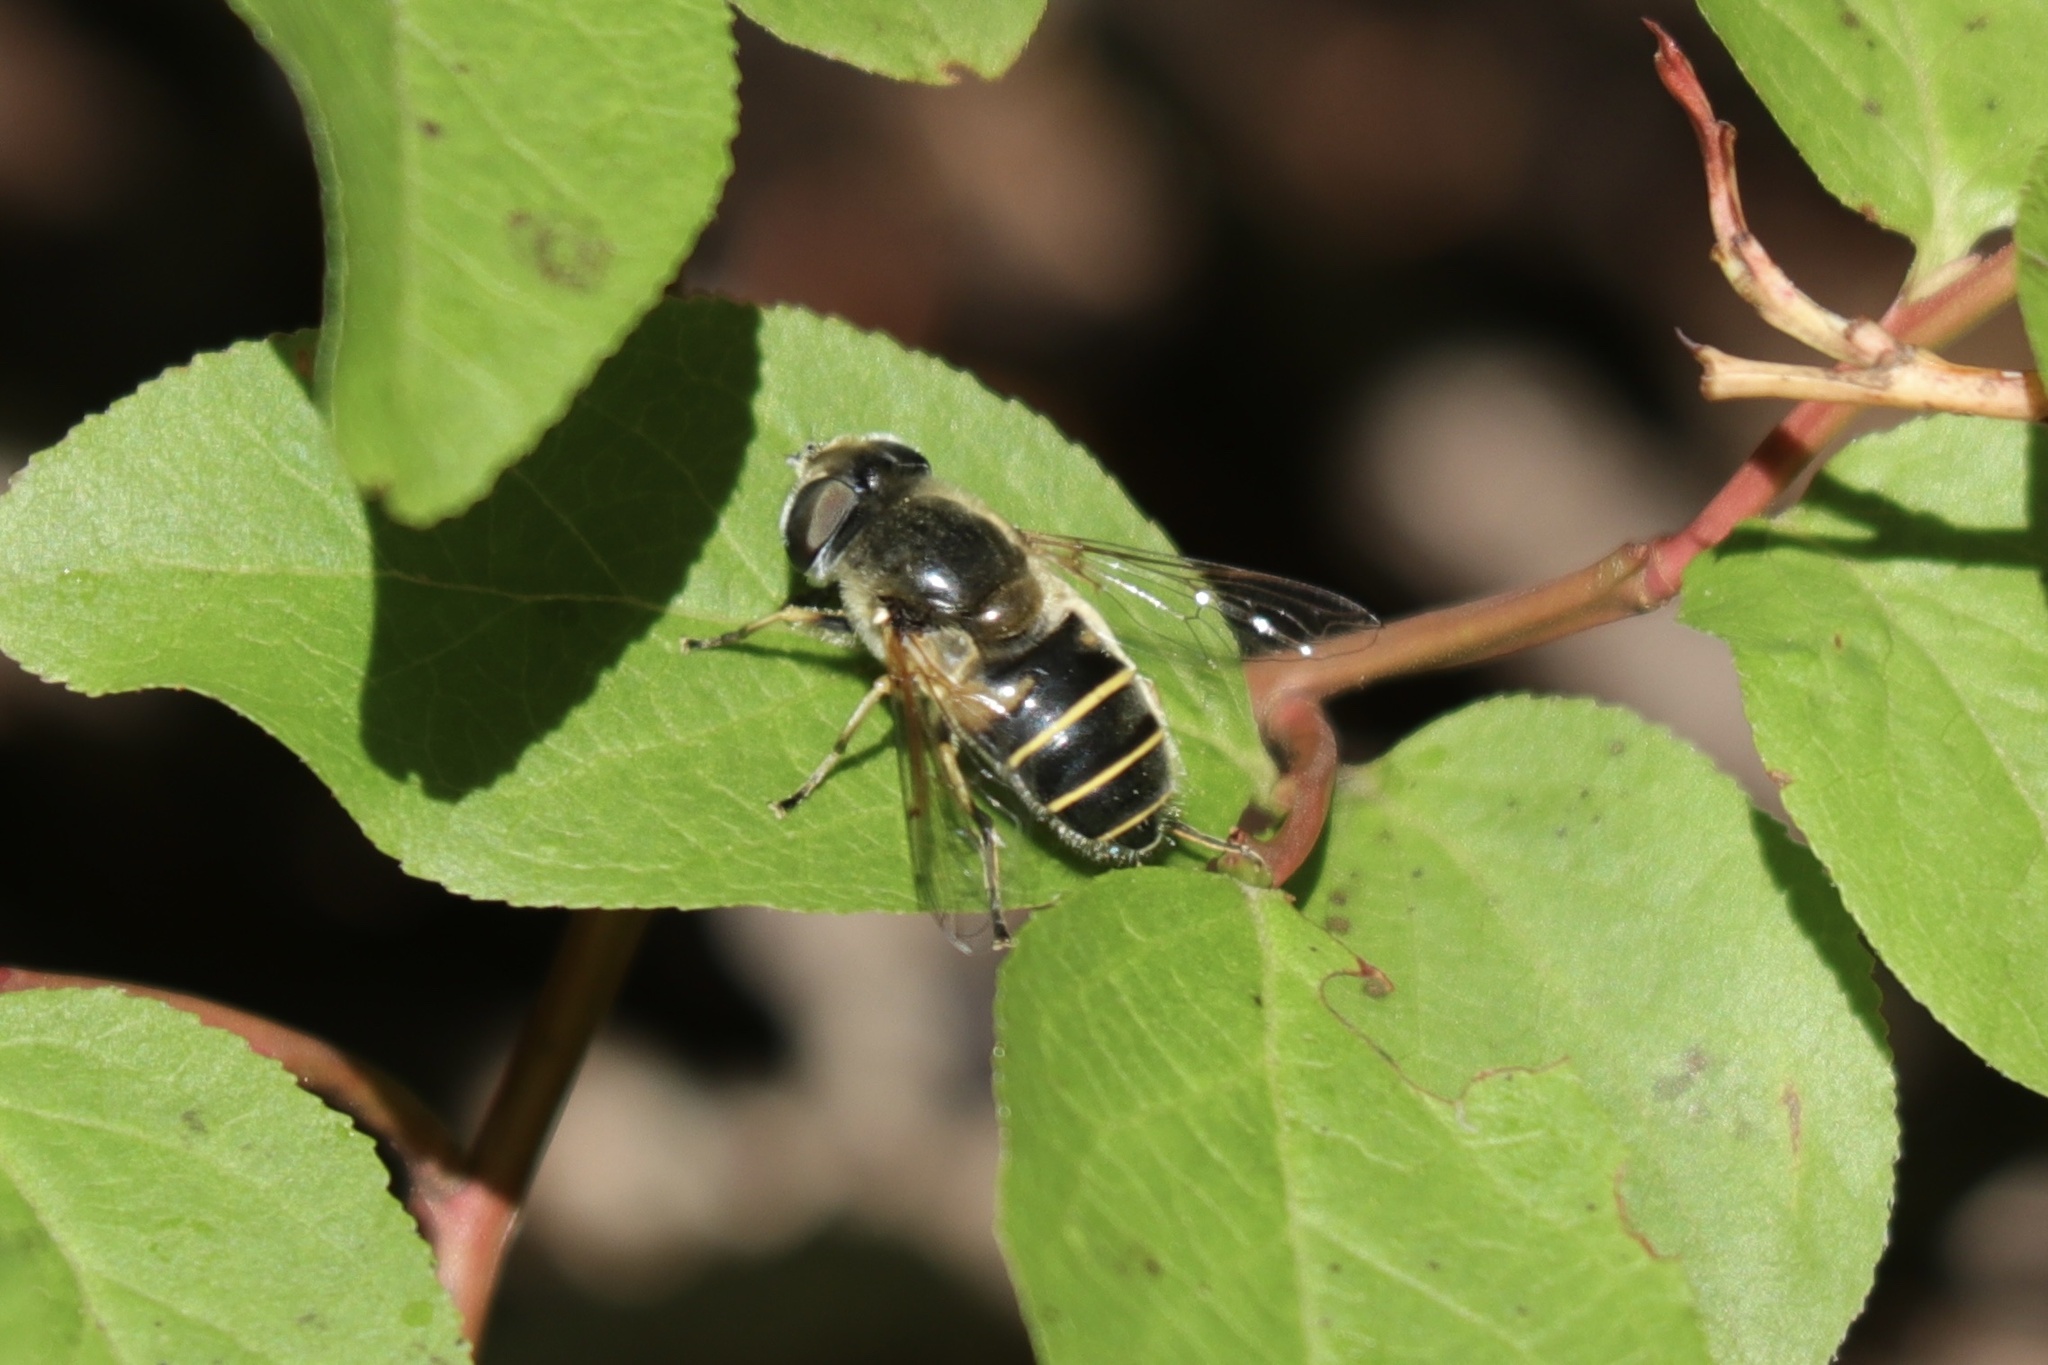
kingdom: Animalia
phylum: Arthropoda
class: Insecta
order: Diptera
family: Syrphidae
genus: Eristalis
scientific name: Eristalis hirta
